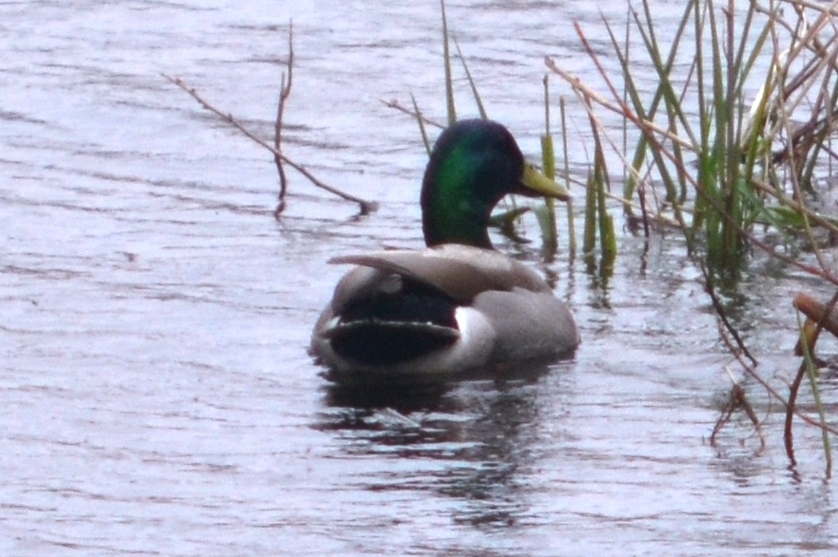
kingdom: Animalia
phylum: Chordata
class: Aves
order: Anseriformes
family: Anatidae
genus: Anas
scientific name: Anas platyrhynchos
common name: Mallard
